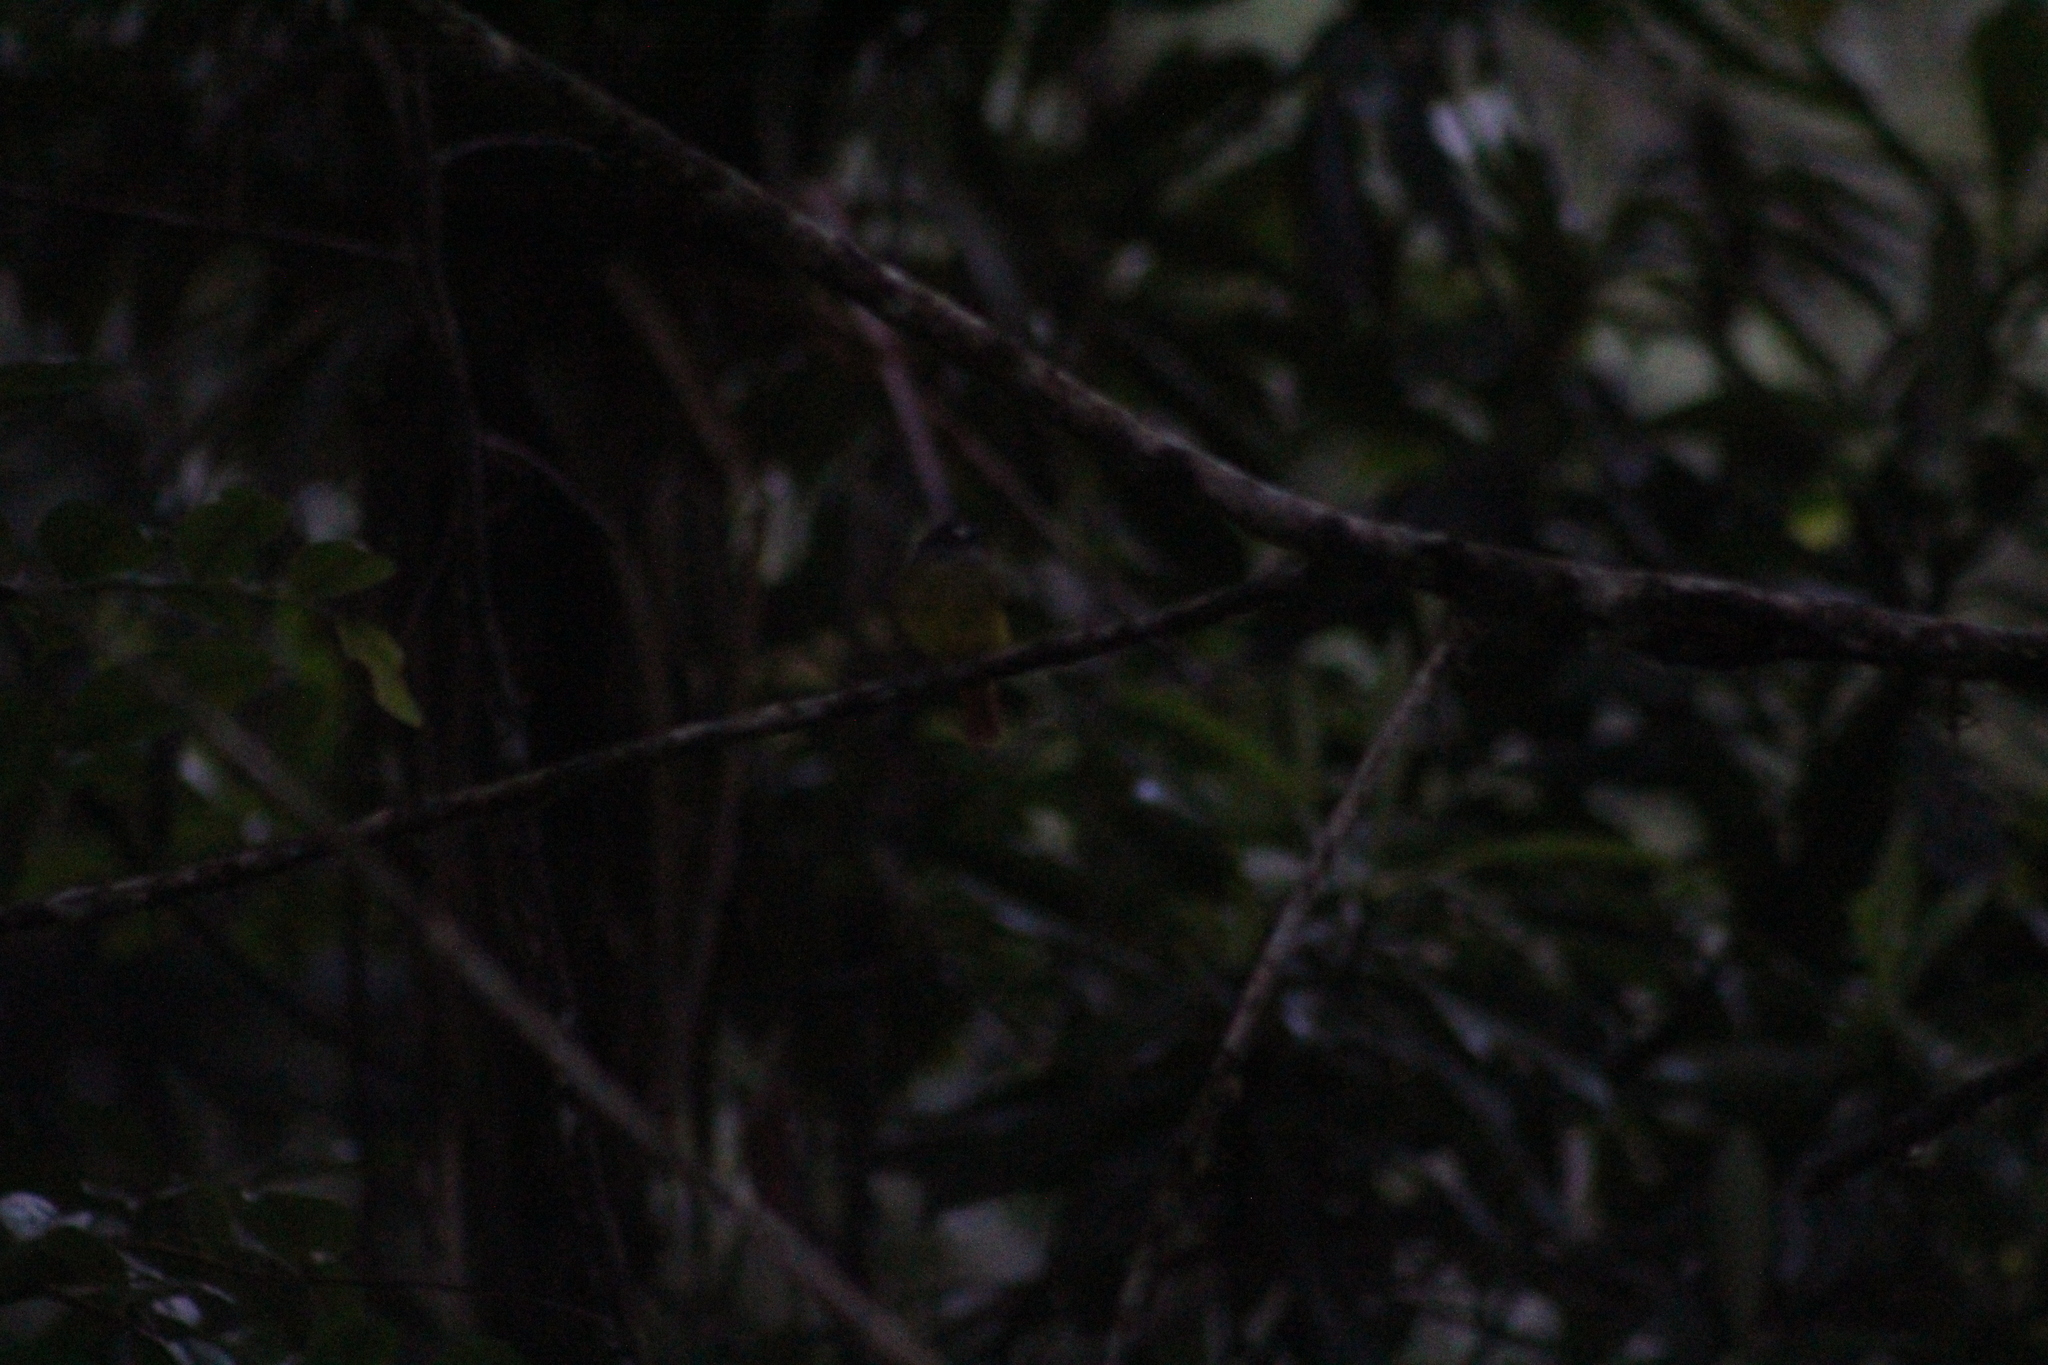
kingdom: Animalia
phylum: Chordata
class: Aves
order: Passeriformes
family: Tyrannidae
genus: Myiotriccus
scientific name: Myiotriccus ornatus
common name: Ornate flycatcher
